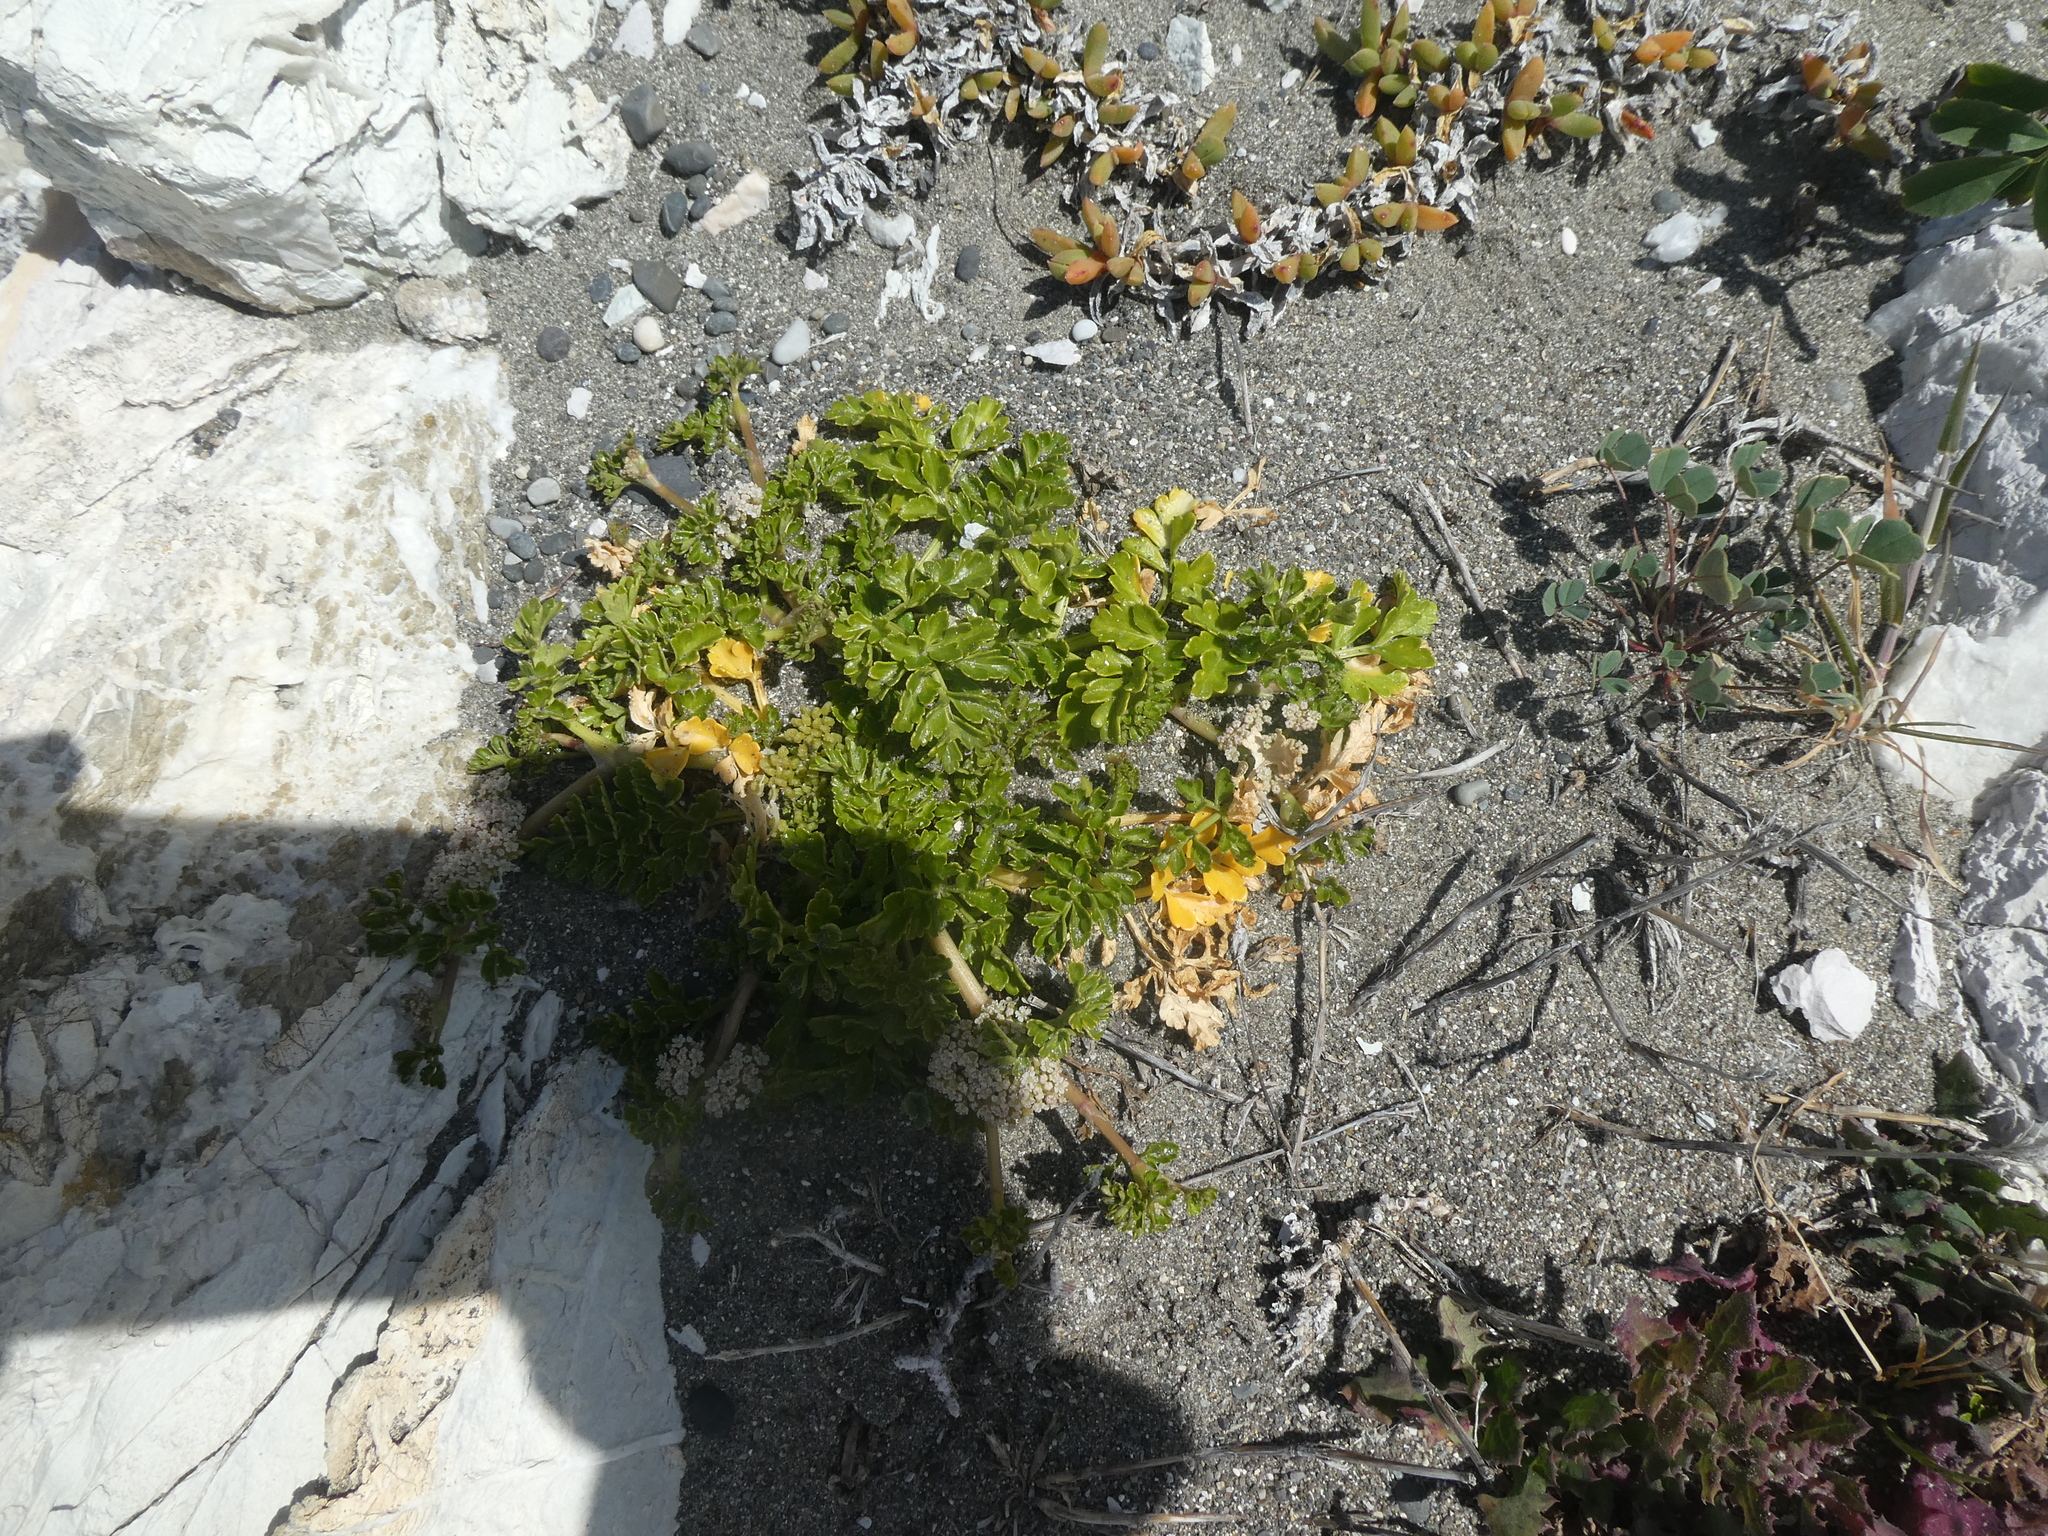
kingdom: Plantae
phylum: Tracheophyta
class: Magnoliopsida
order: Apiales
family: Apiaceae
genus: Apium
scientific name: Apium prostratum
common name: Prostrate marshwort
